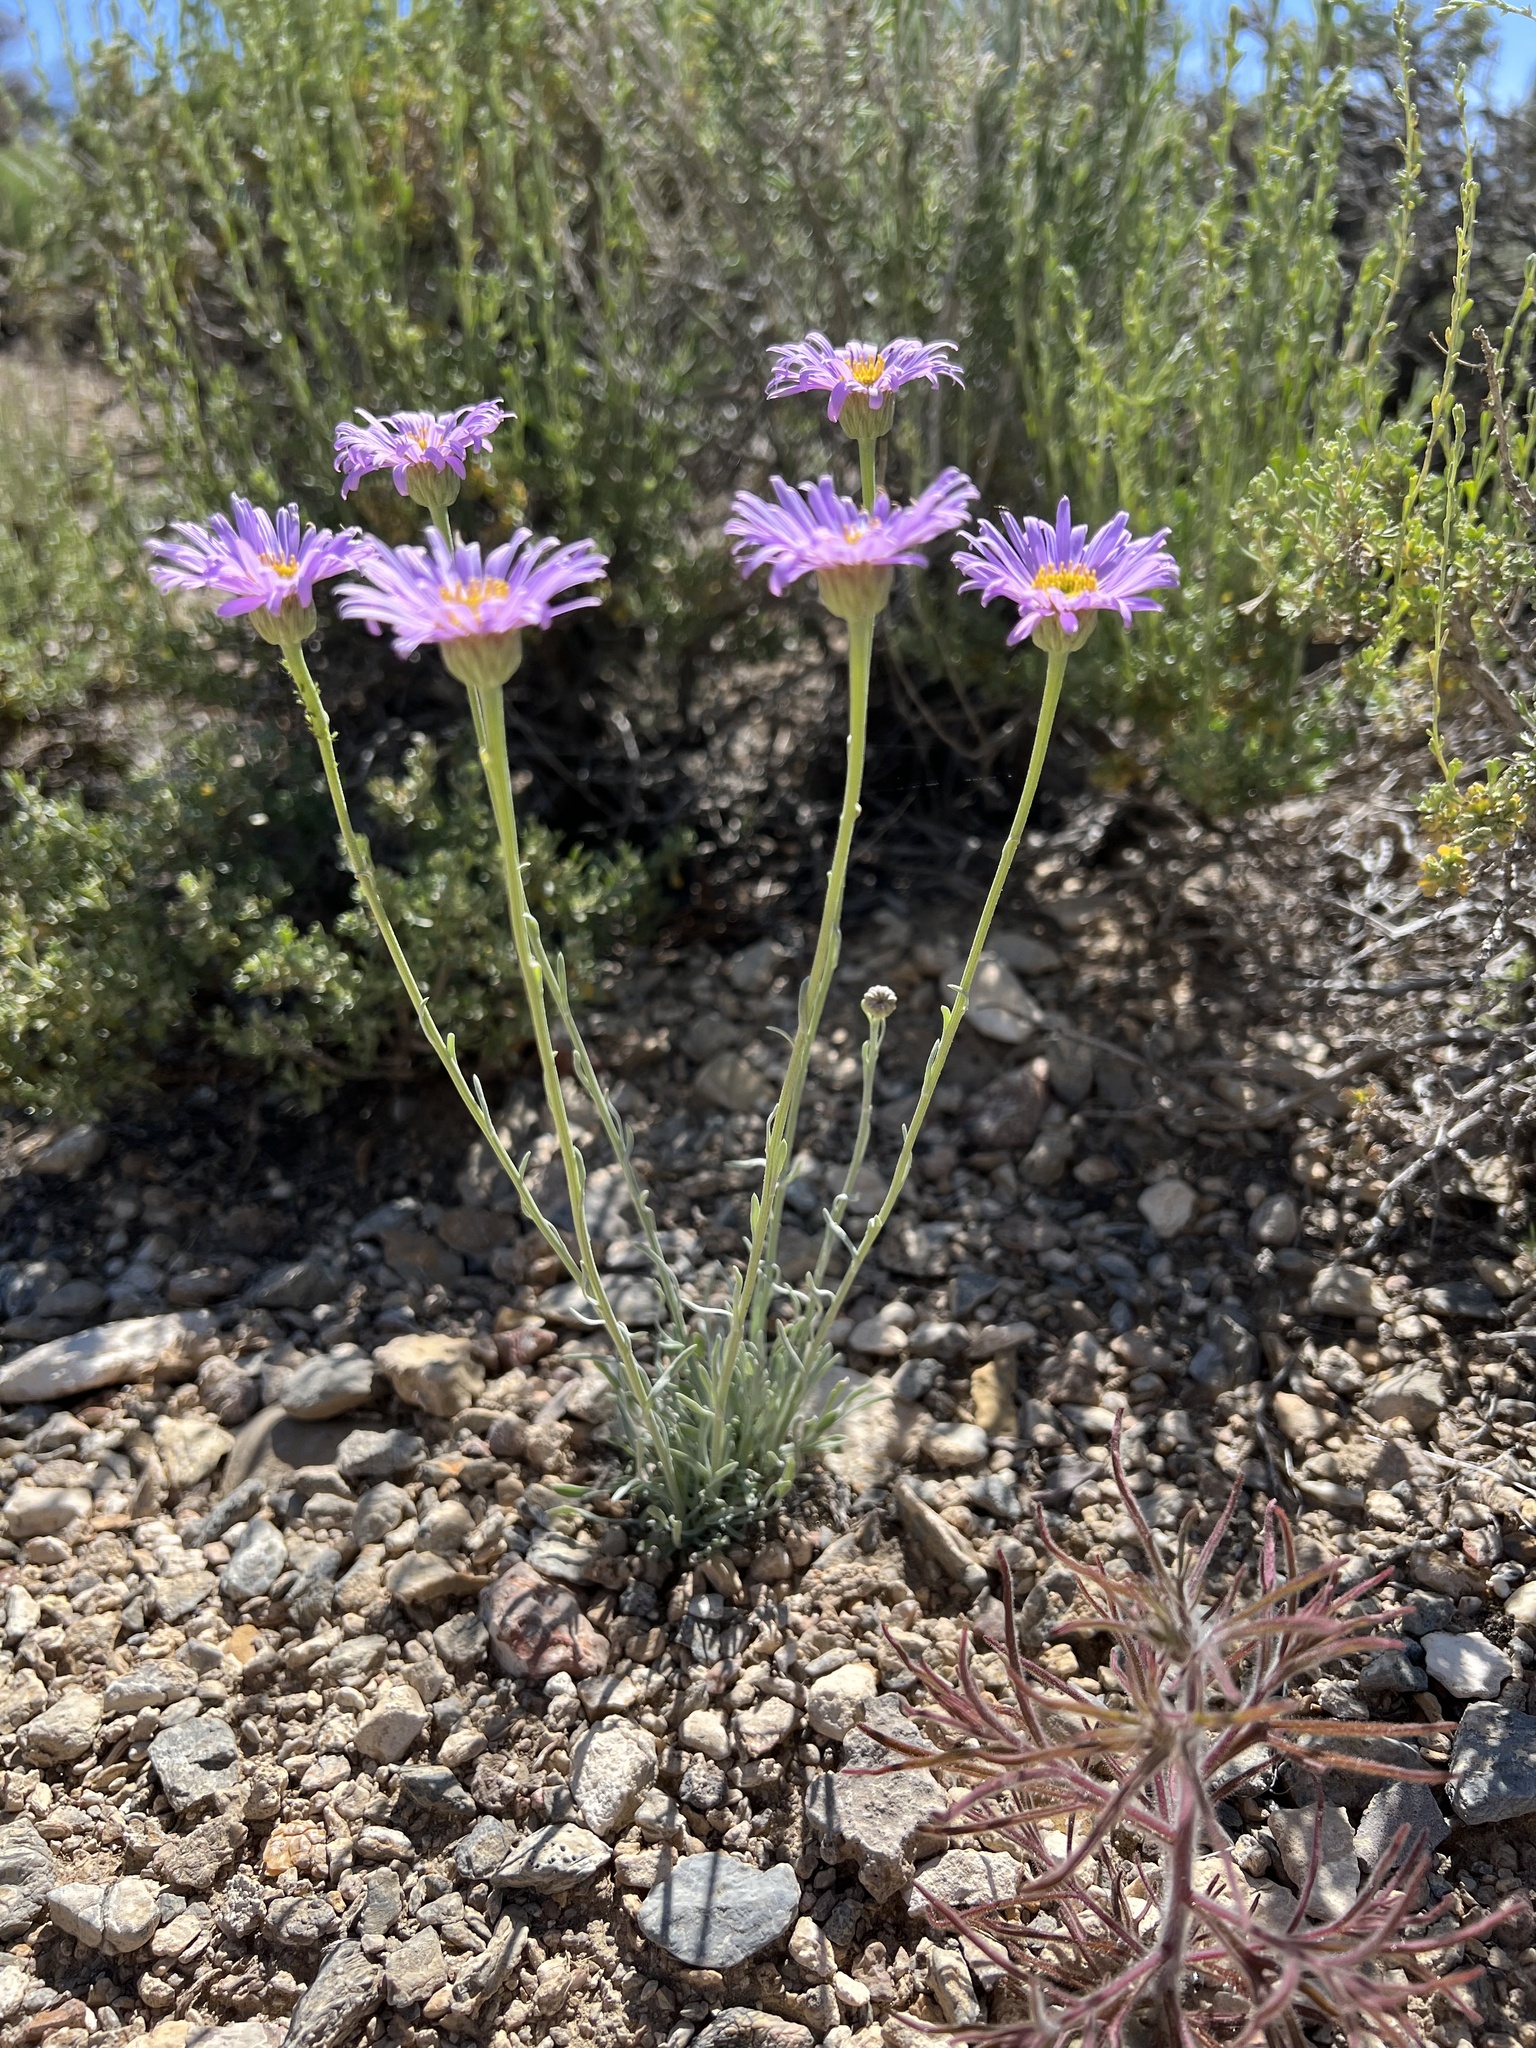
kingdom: Plantae
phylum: Tracheophyta
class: Magnoliopsida
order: Asterales
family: Asteraceae
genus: Erigeron
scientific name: Erigeron argentatus
